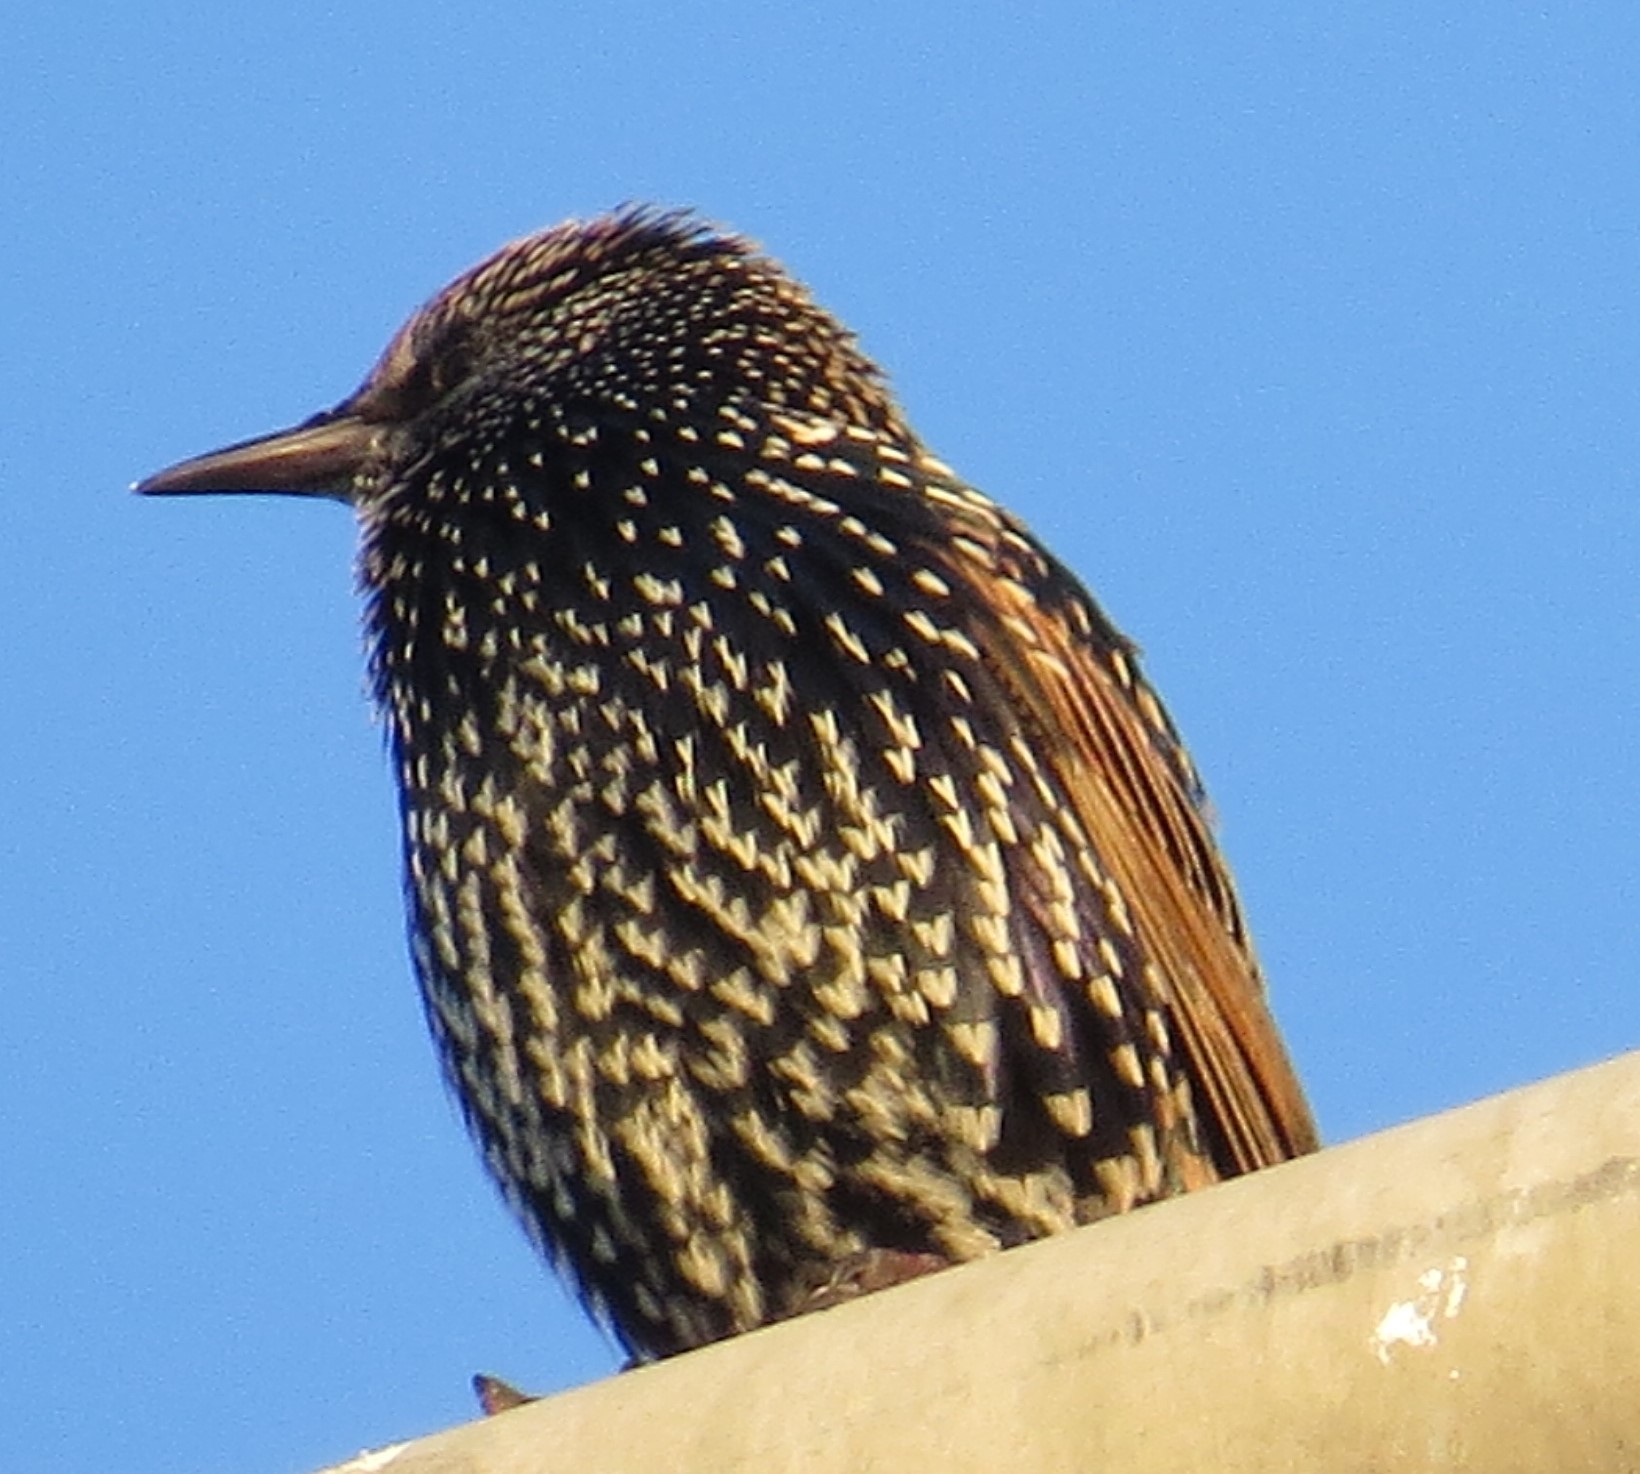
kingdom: Animalia
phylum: Chordata
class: Aves
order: Passeriformes
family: Sturnidae
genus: Sturnus
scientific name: Sturnus vulgaris
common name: Common starling
